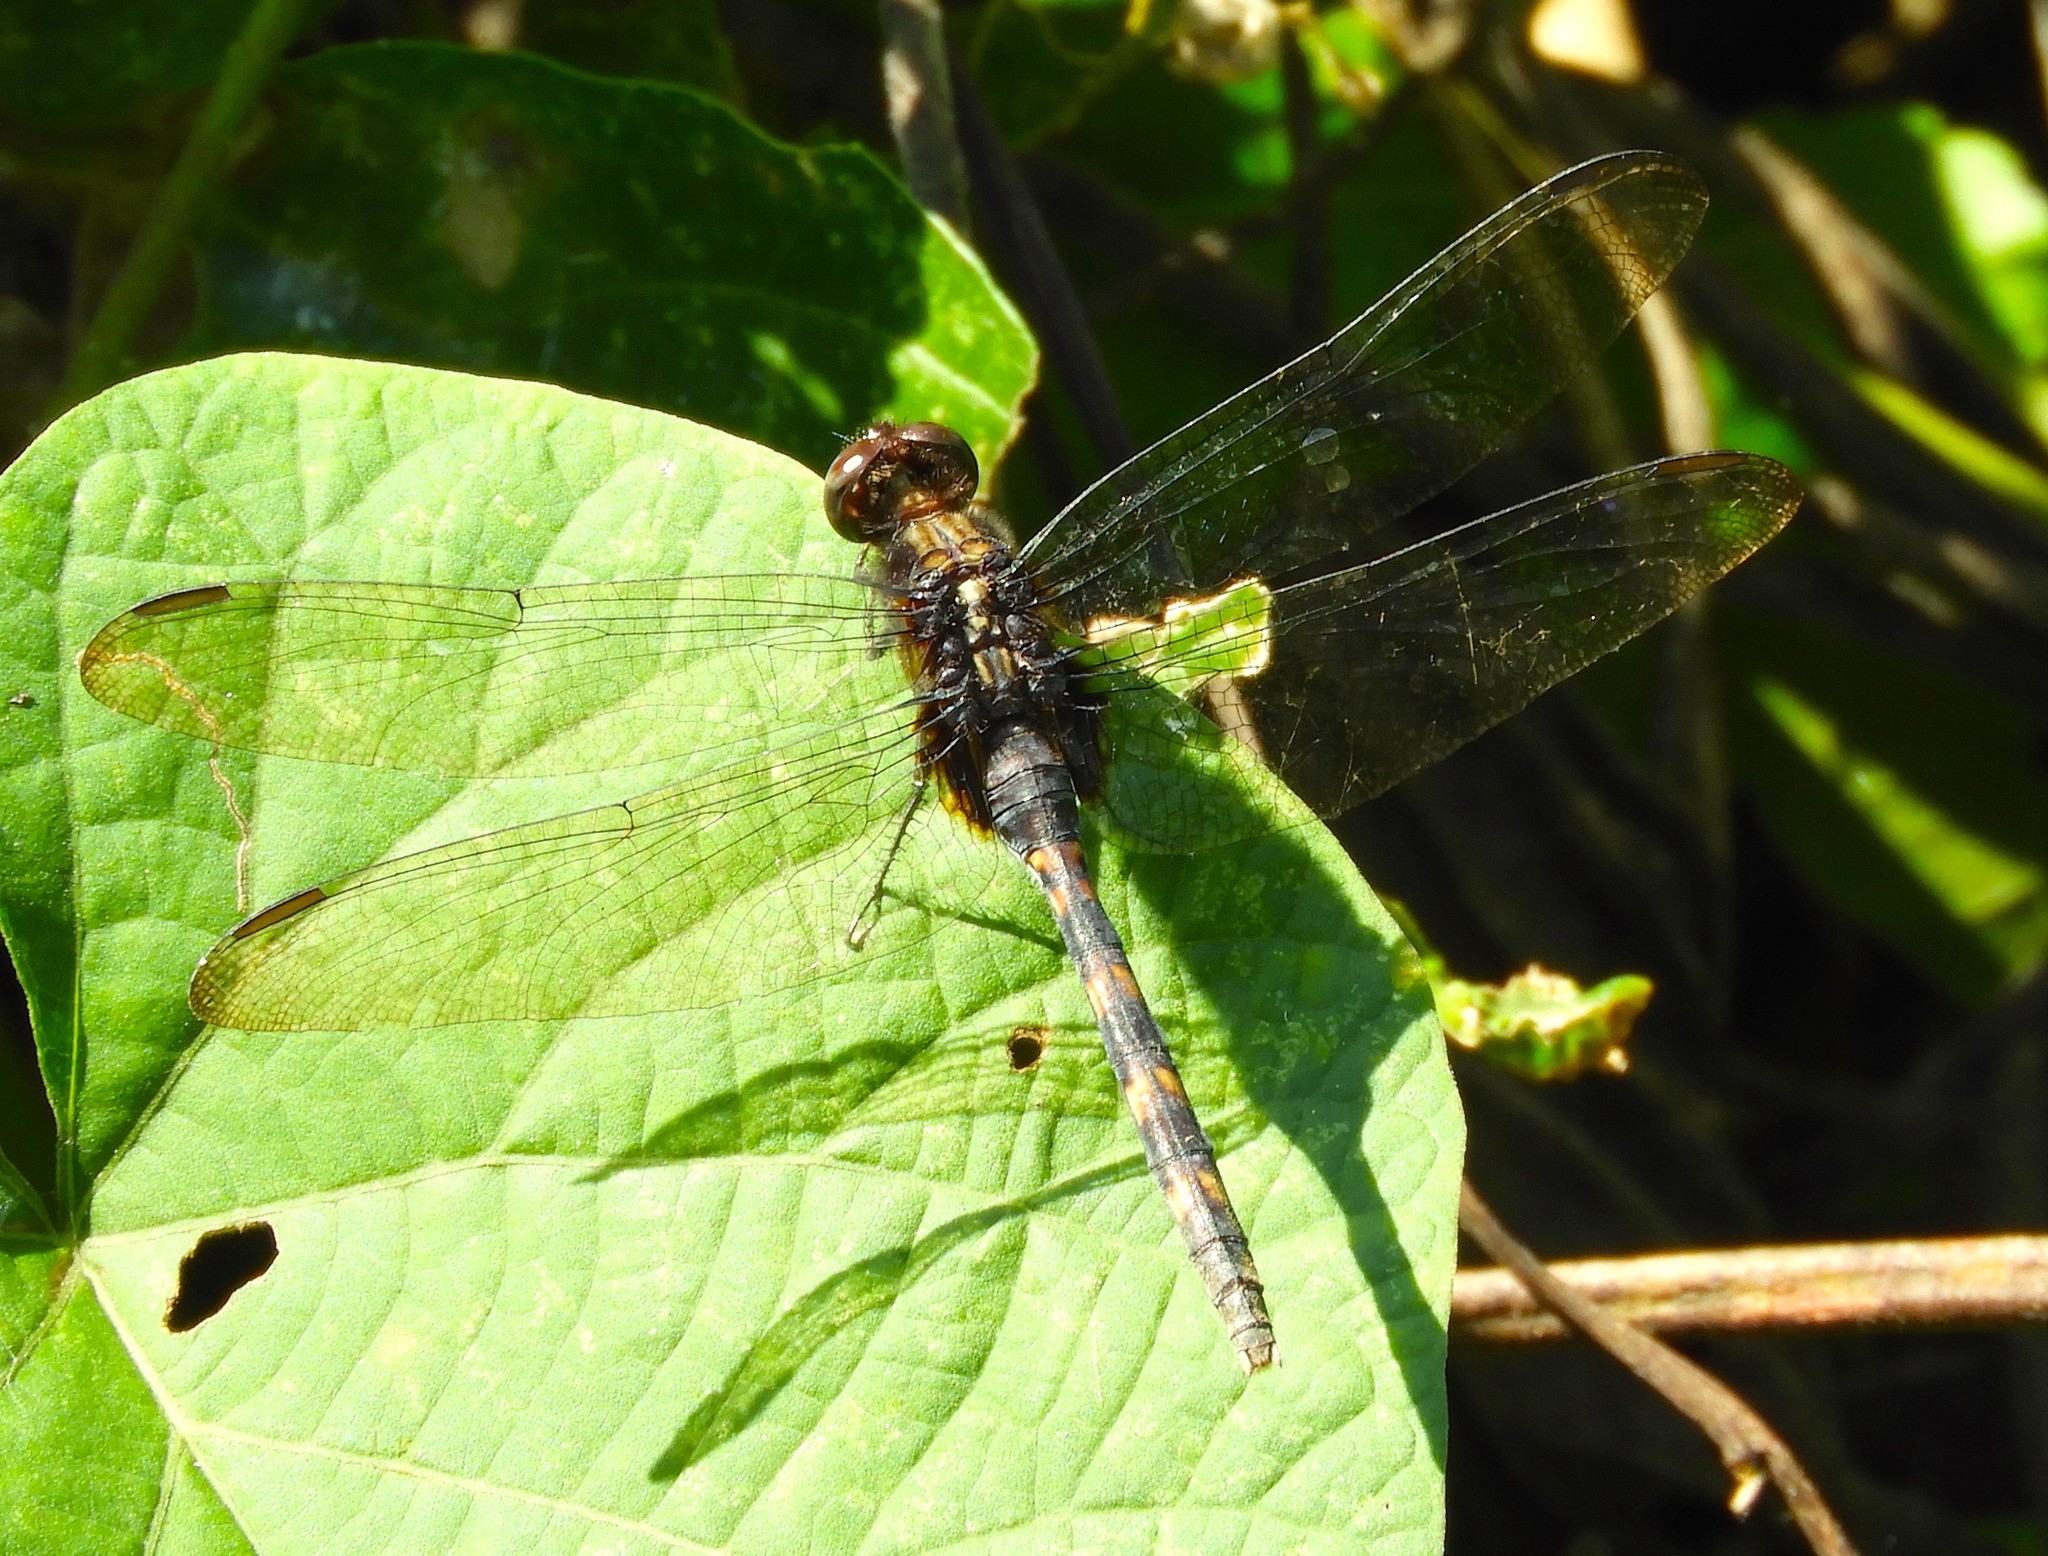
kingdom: Animalia
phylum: Arthropoda
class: Insecta
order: Odonata
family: Libellulidae
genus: Erythemis
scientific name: Erythemis plebeja
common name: Pin-tailed pondhawk
